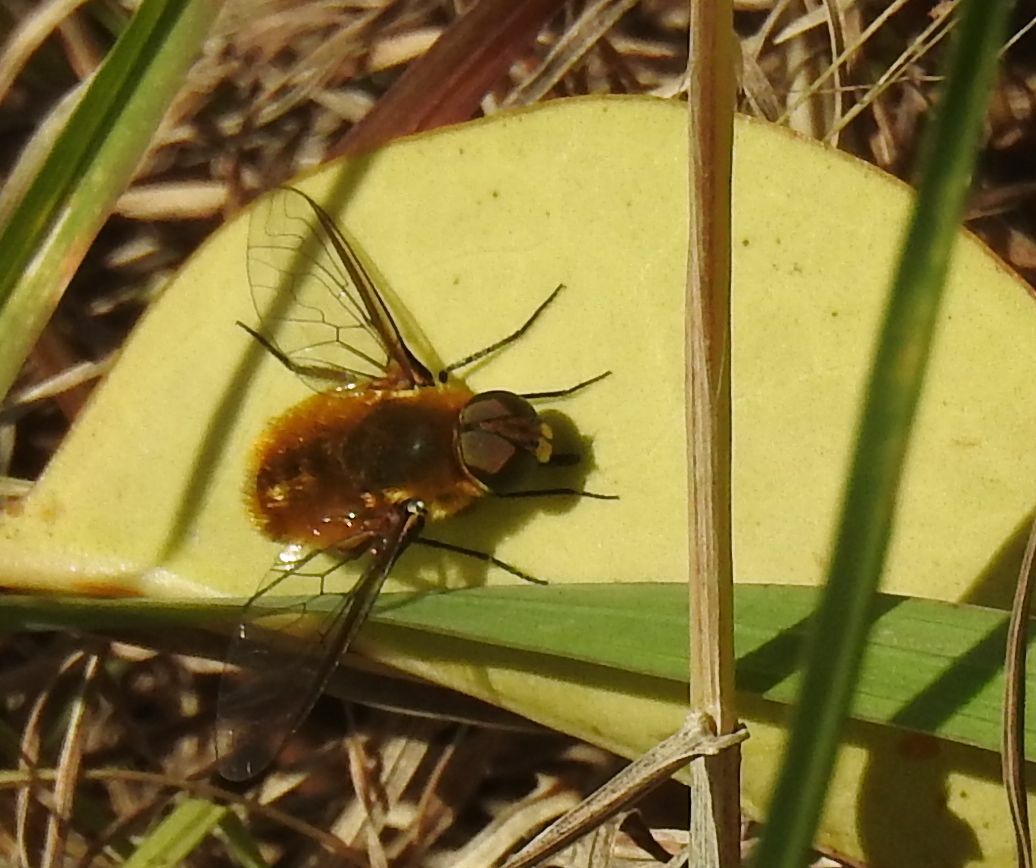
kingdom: Animalia
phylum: Arthropoda
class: Insecta
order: Diptera
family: Bombyliidae
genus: Villa
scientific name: Villa hottentotta
